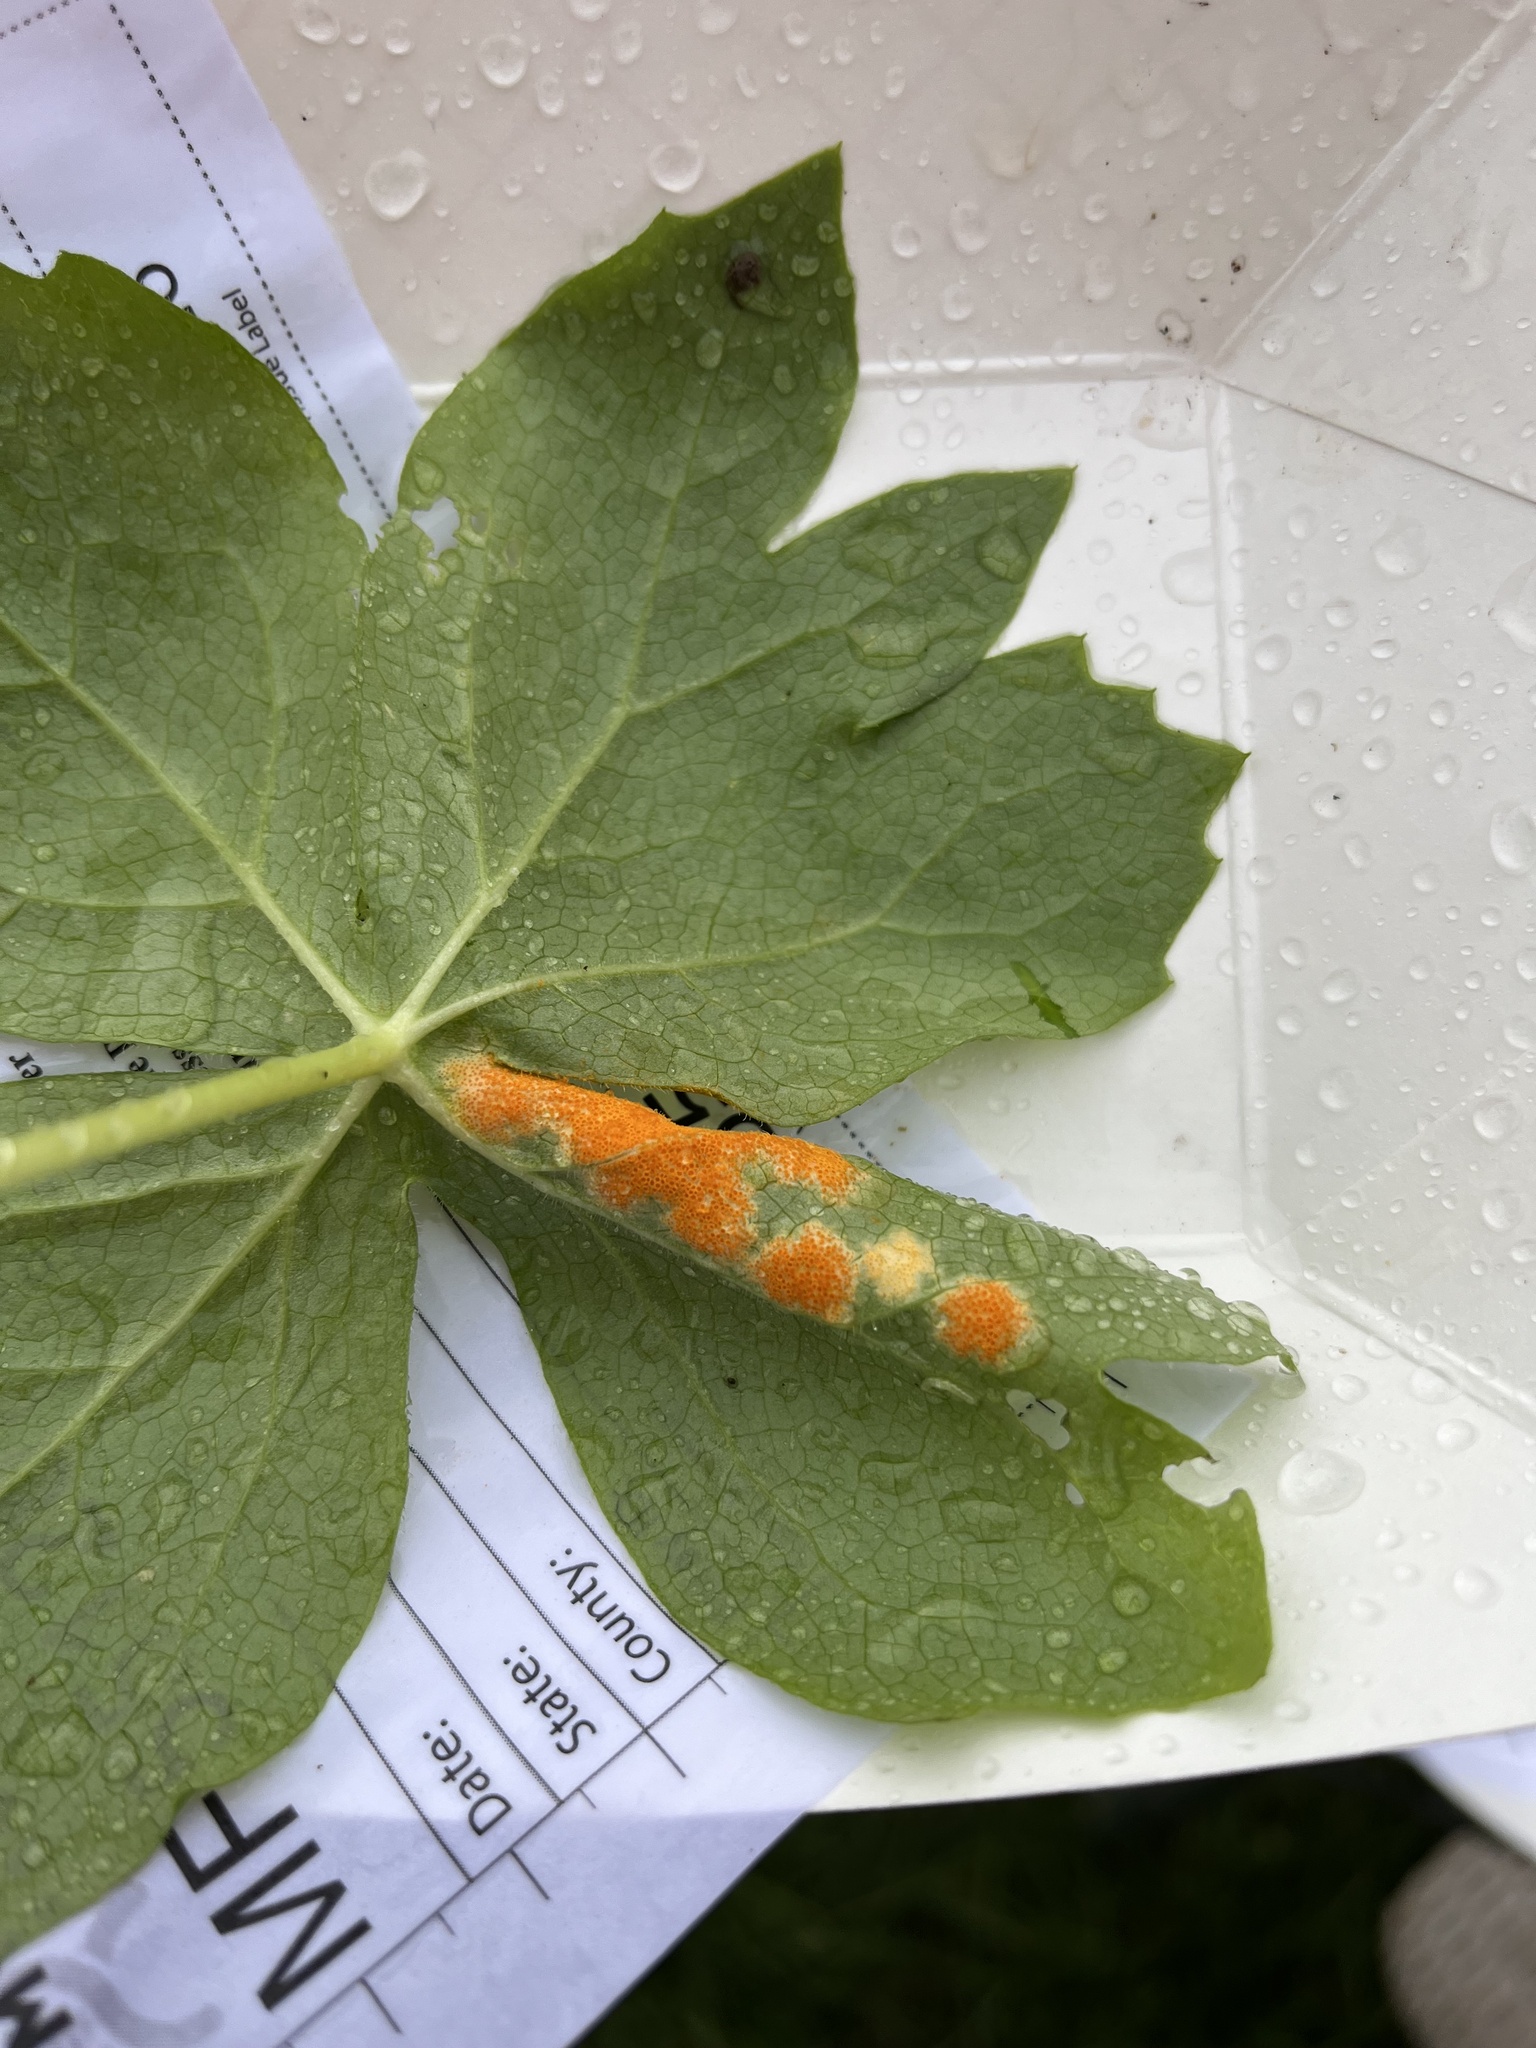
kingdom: Fungi
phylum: Basidiomycota
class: Pucciniomycetes
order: Pucciniales
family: Pucciniaceae
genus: Puccinia
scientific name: Puccinia podophylli
